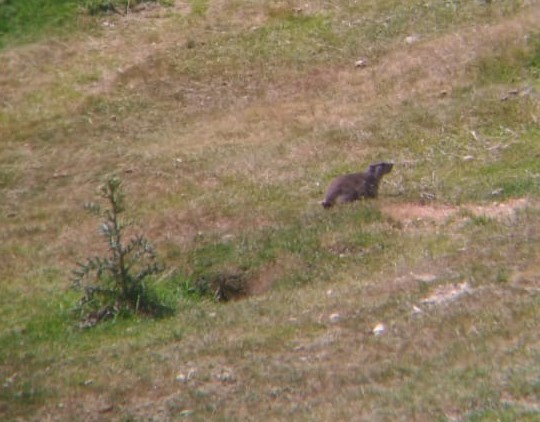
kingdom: Animalia
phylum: Chordata
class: Mammalia
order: Rodentia
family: Sciuridae
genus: Marmota
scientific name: Marmota marmota
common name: Alpine marmot
